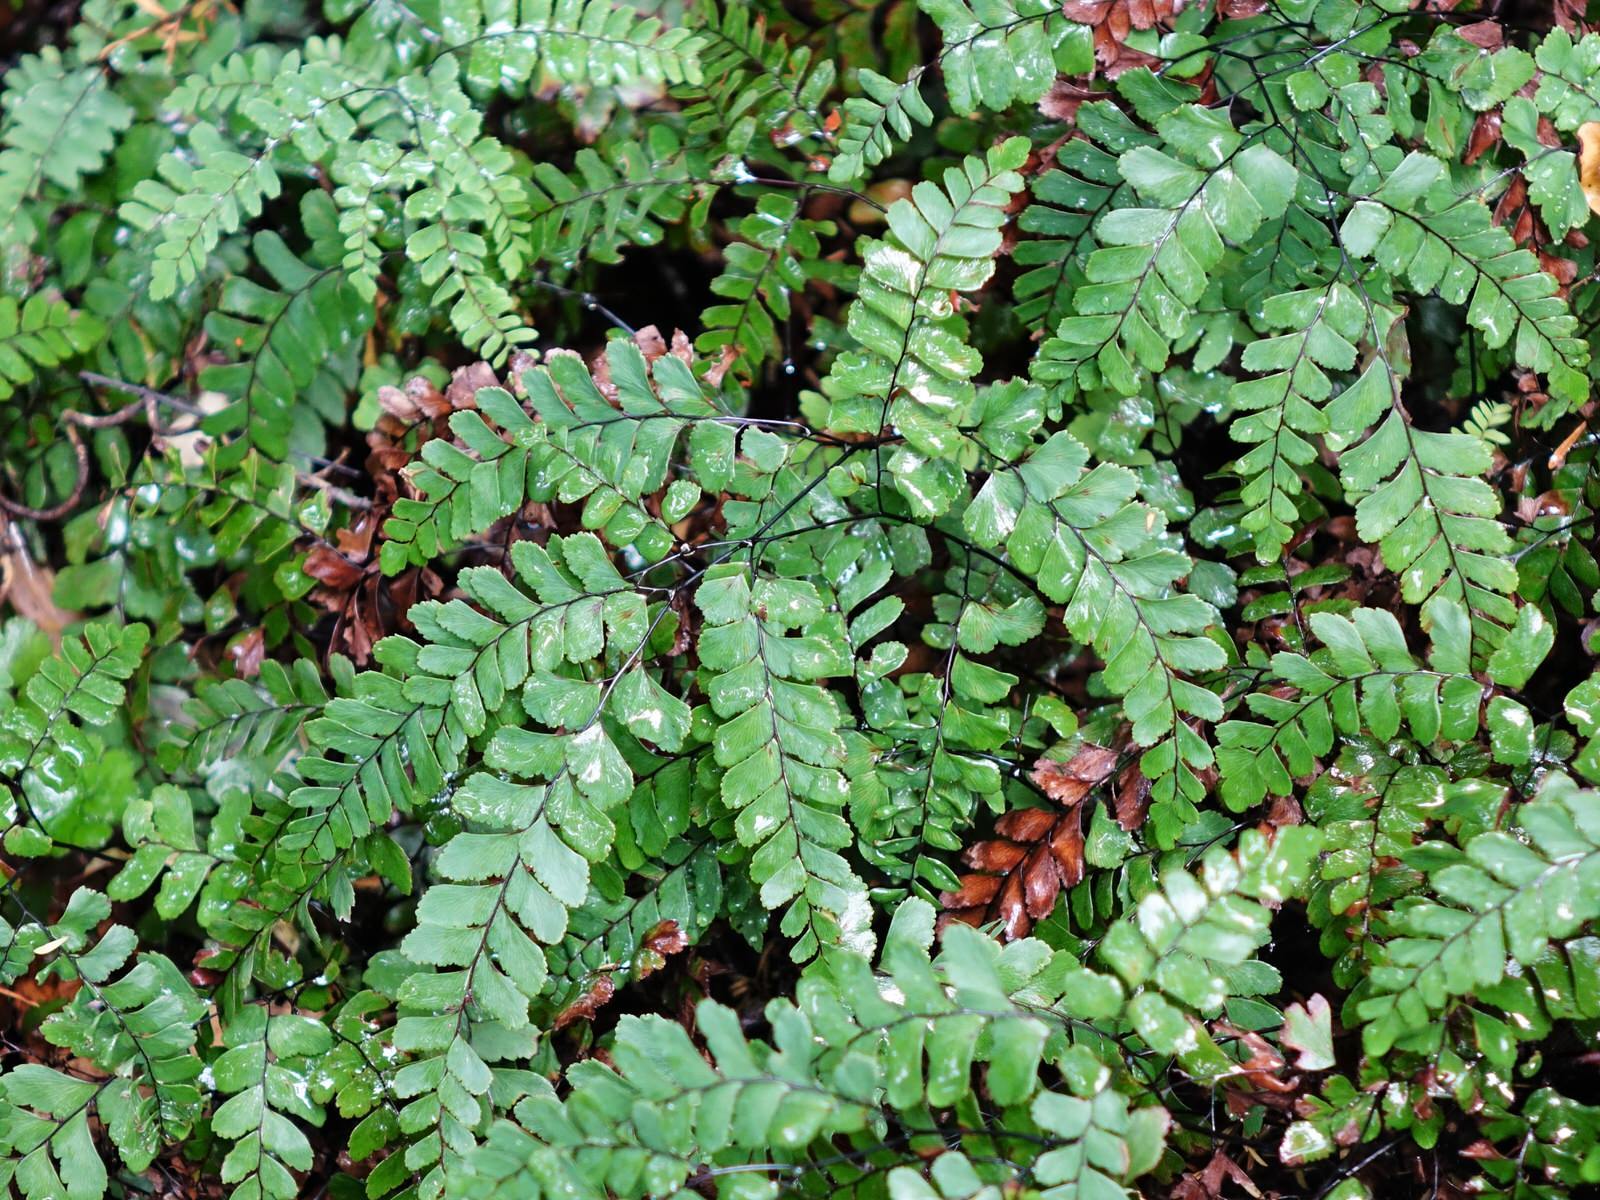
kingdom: Plantae
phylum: Tracheophyta
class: Polypodiopsida
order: Polypodiales
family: Pteridaceae
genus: Adiantum
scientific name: Adiantum cunninghamii
